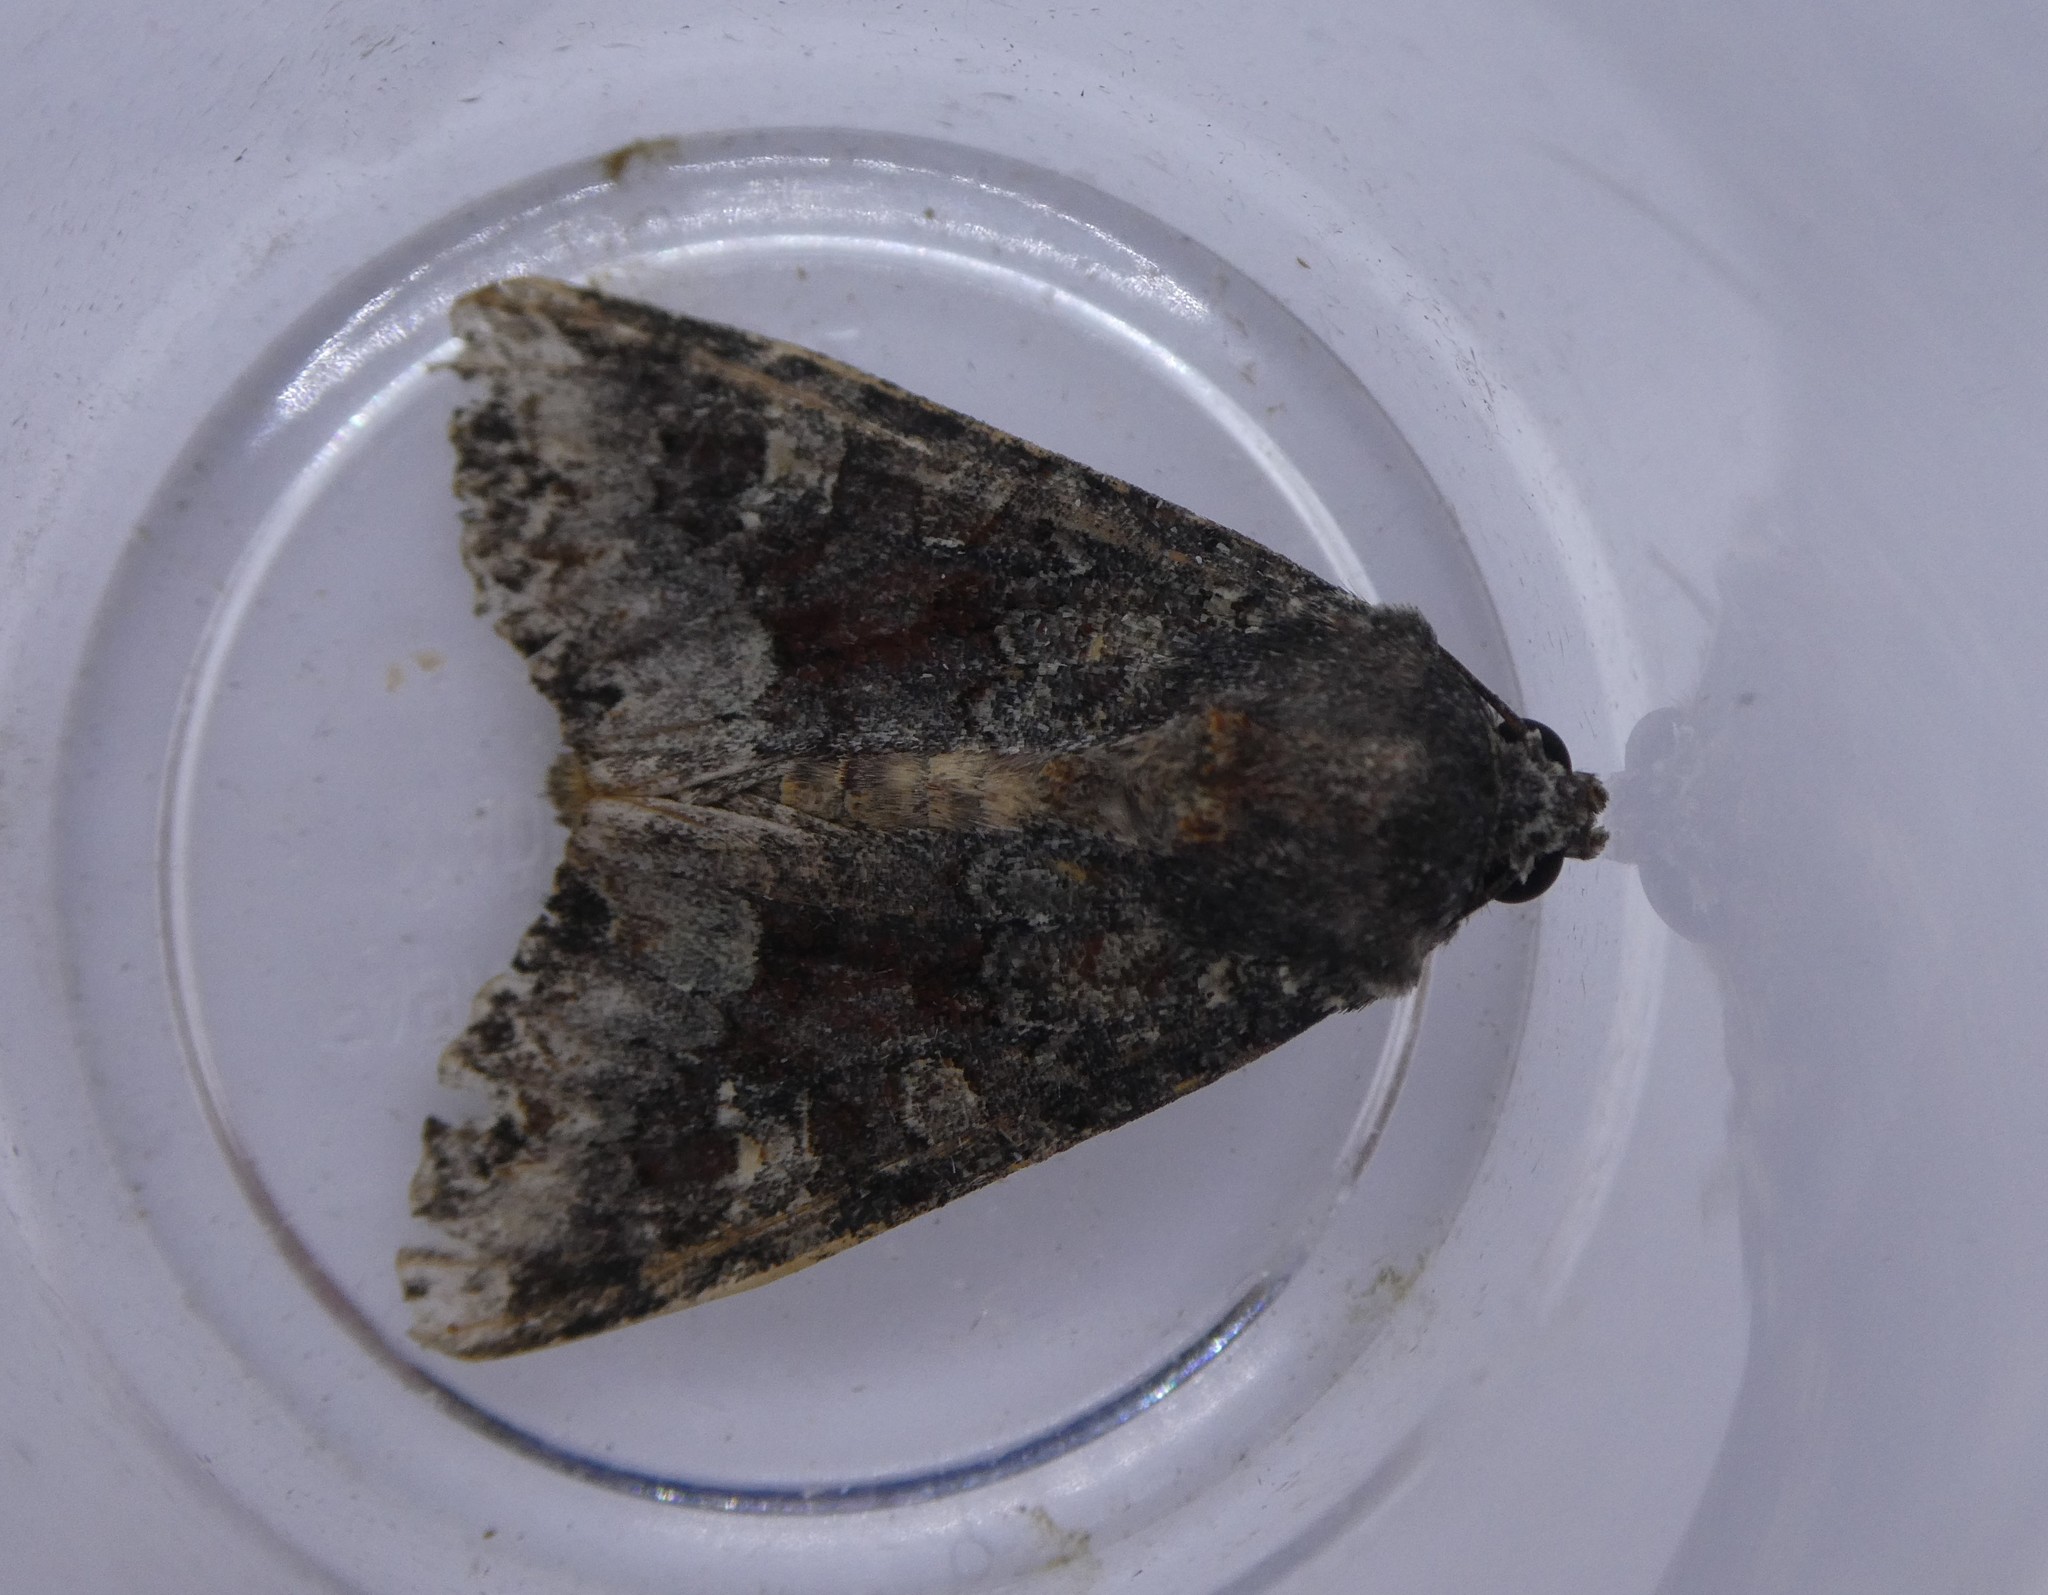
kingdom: Animalia
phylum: Arthropoda
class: Insecta
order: Lepidoptera
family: Noctuidae
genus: Apamea
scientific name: Apamea amputatrix
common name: Yellow-headed cutworm moth
